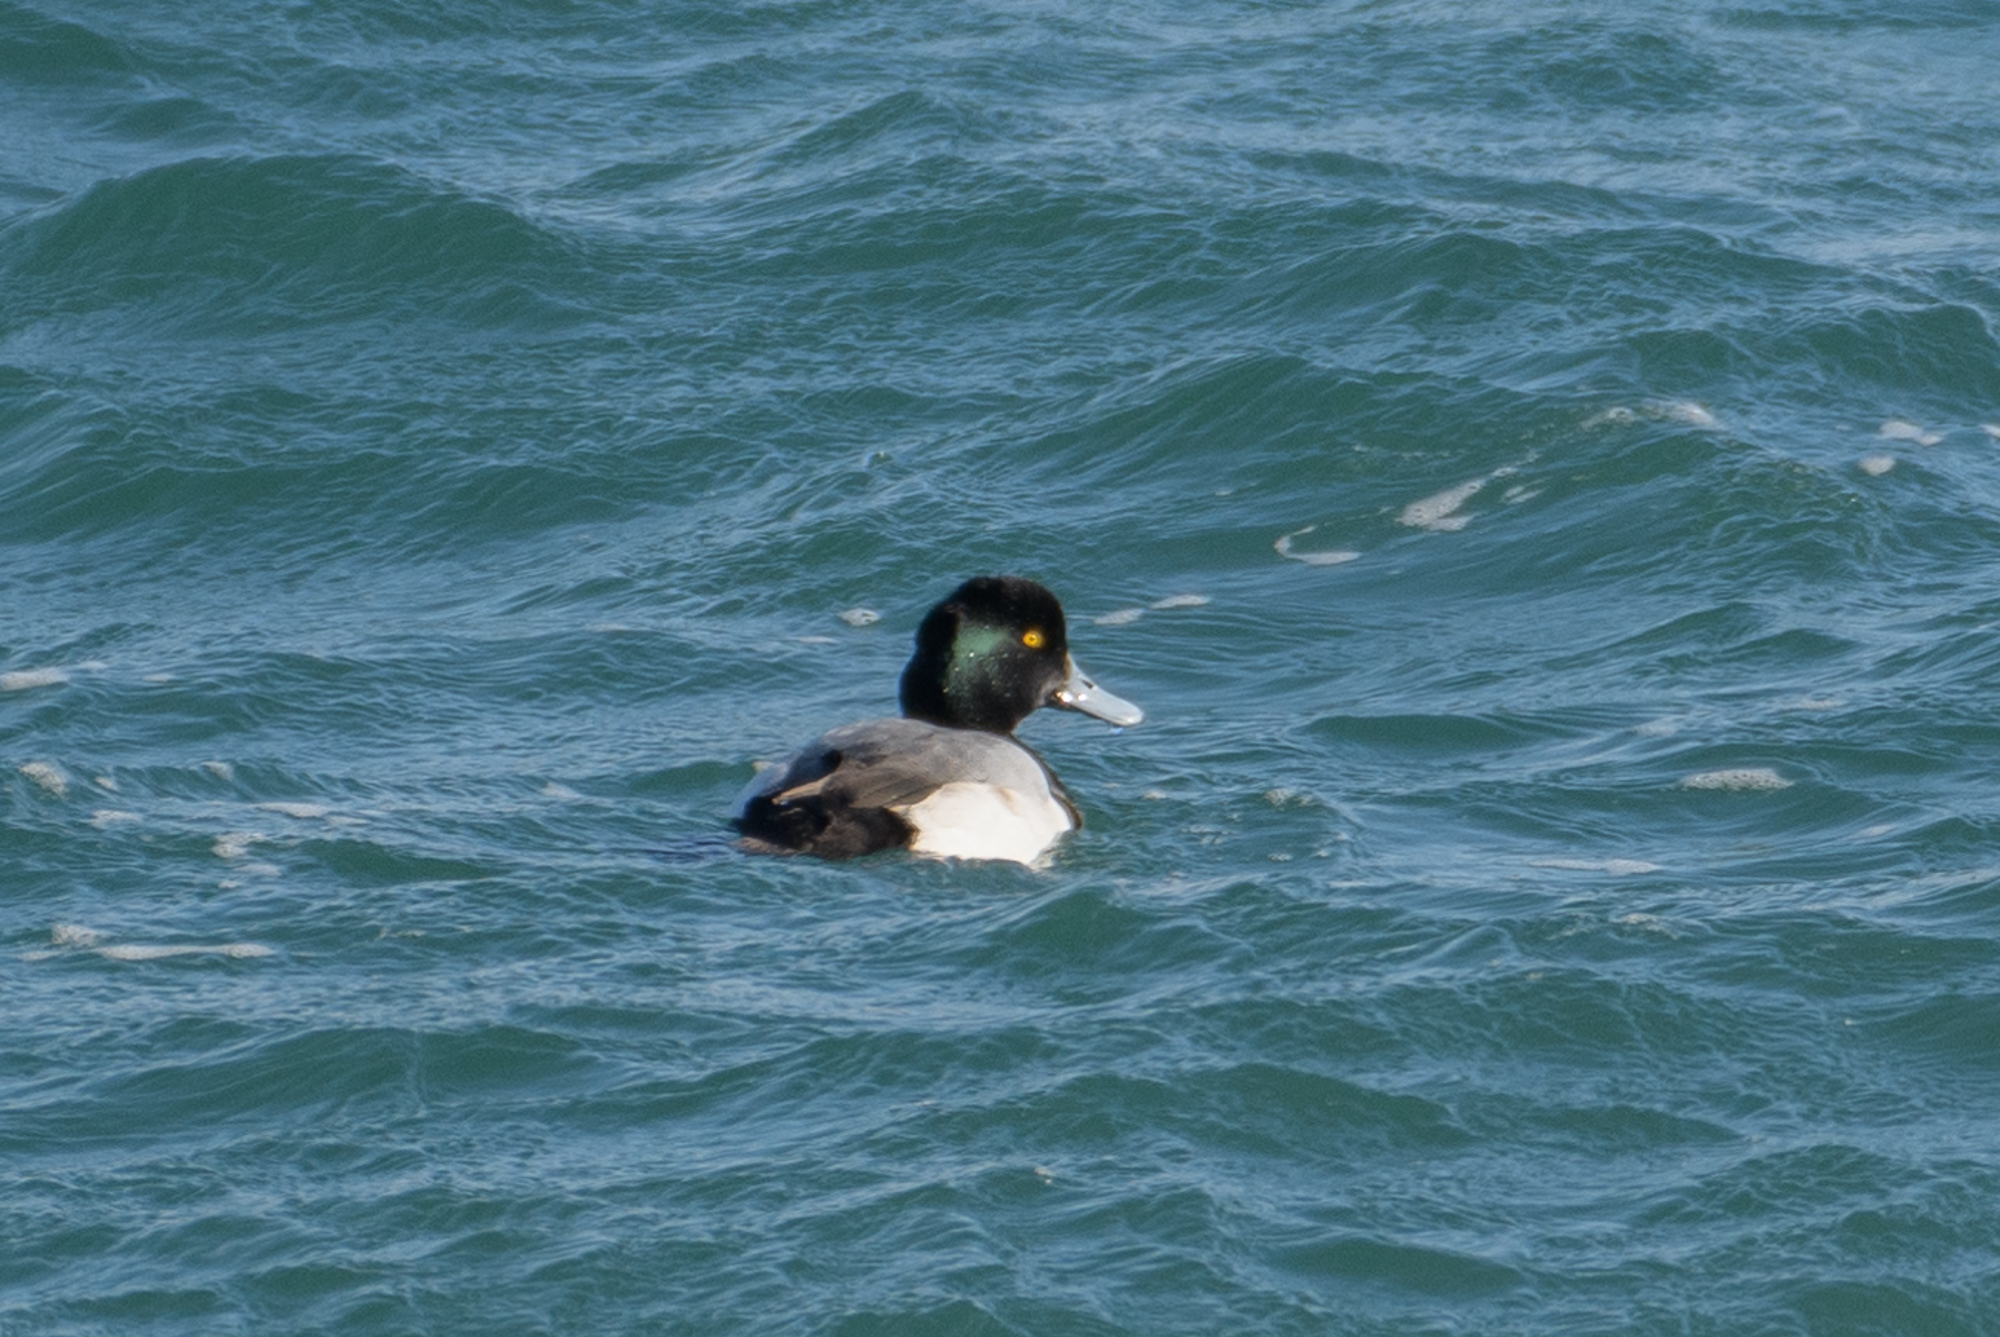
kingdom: Animalia
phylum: Chordata
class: Aves
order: Anseriformes
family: Anatidae
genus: Aythya
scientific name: Aythya marila
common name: Greater scaup
